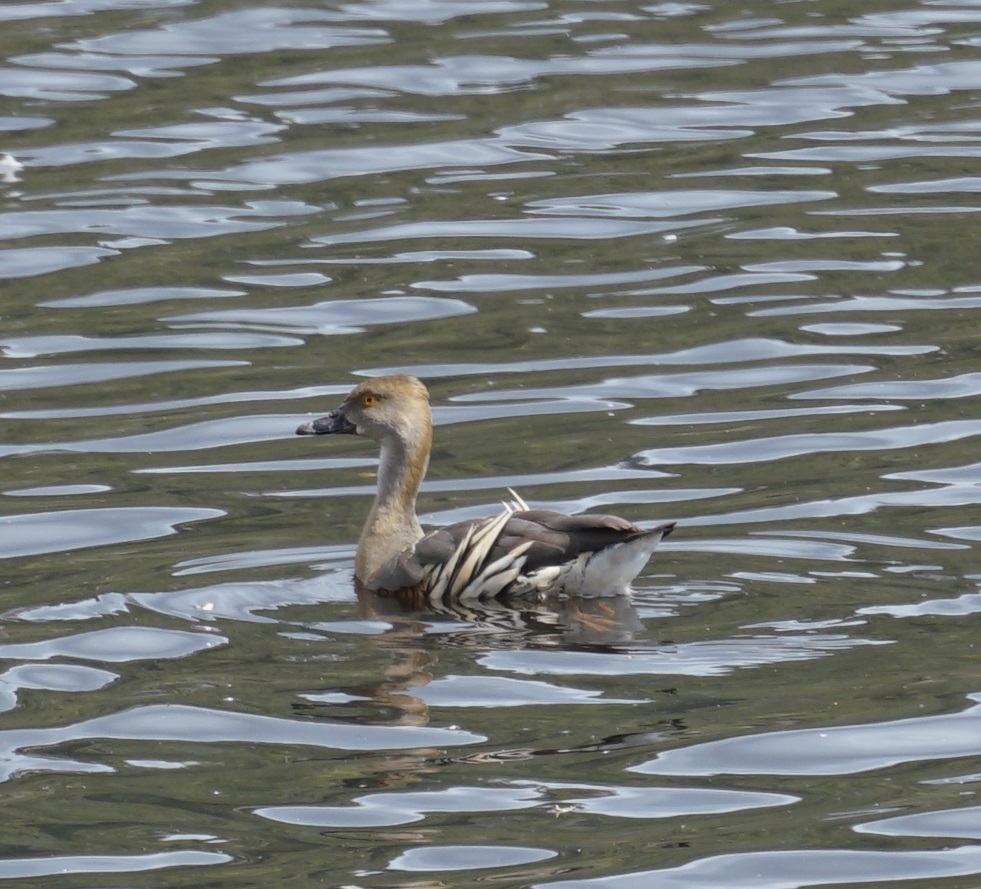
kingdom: Animalia
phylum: Chordata
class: Aves
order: Anseriformes
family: Anatidae
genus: Dendrocygna
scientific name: Dendrocygna eytoni
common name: Plumed whistling-duck
